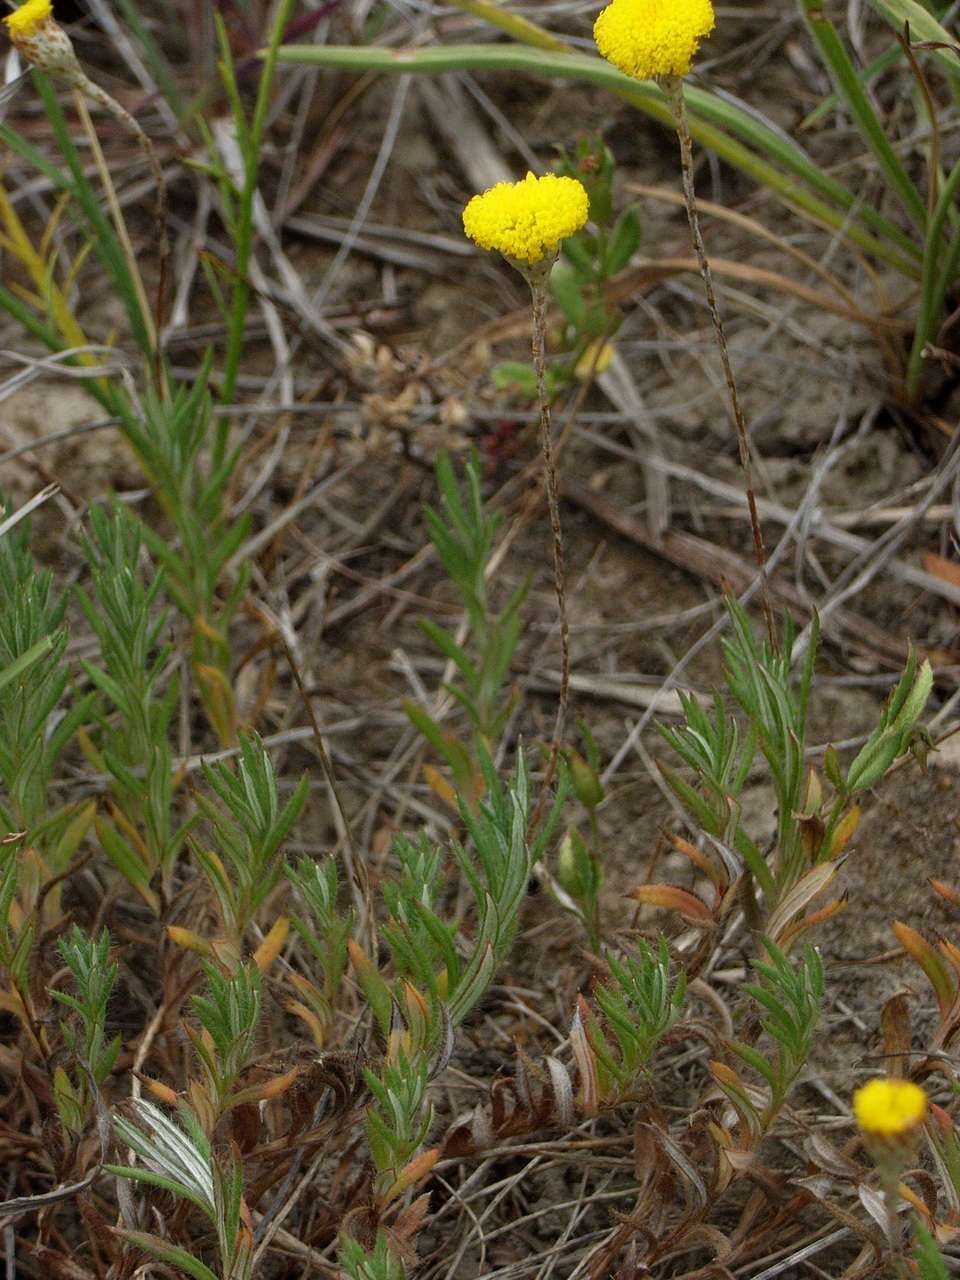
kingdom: Plantae
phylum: Tracheophyta
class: Magnoliopsida
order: Asterales
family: Asteraceae
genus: Leptorhynchos
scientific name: Leptorhynchos squamatus
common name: Scaly-buttons
